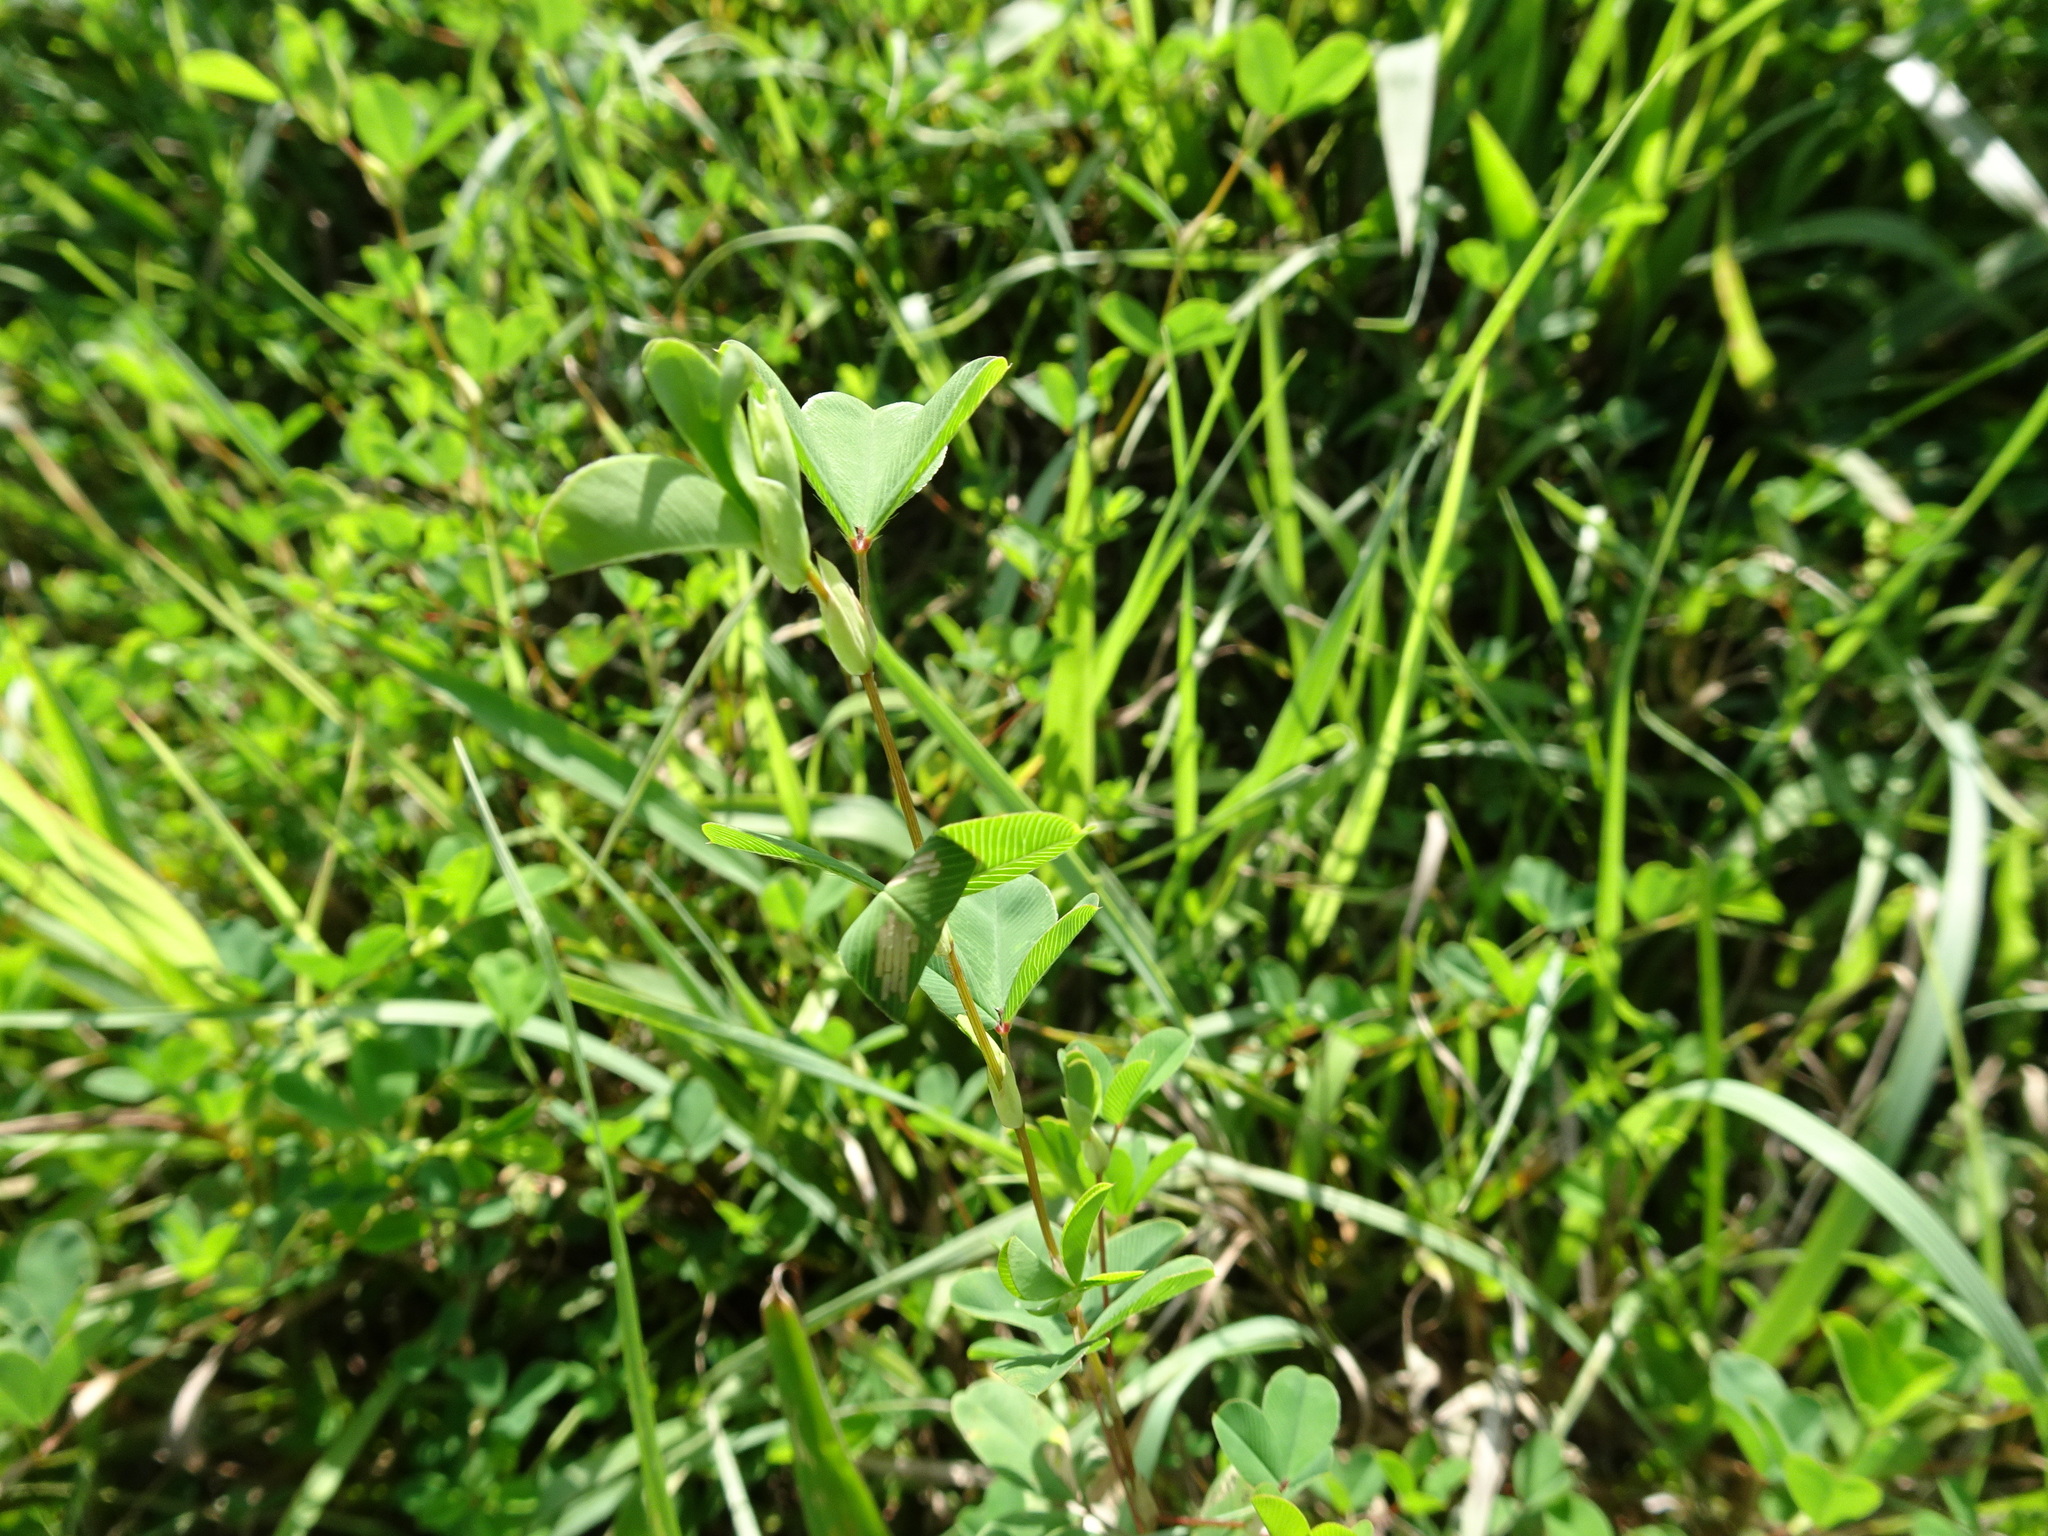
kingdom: Plantae
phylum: Tracheophyta
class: Magnoliopsida
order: Fabales
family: Fabaceae
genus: Kummerowia
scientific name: Kummerowia striata
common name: Japanese clover
